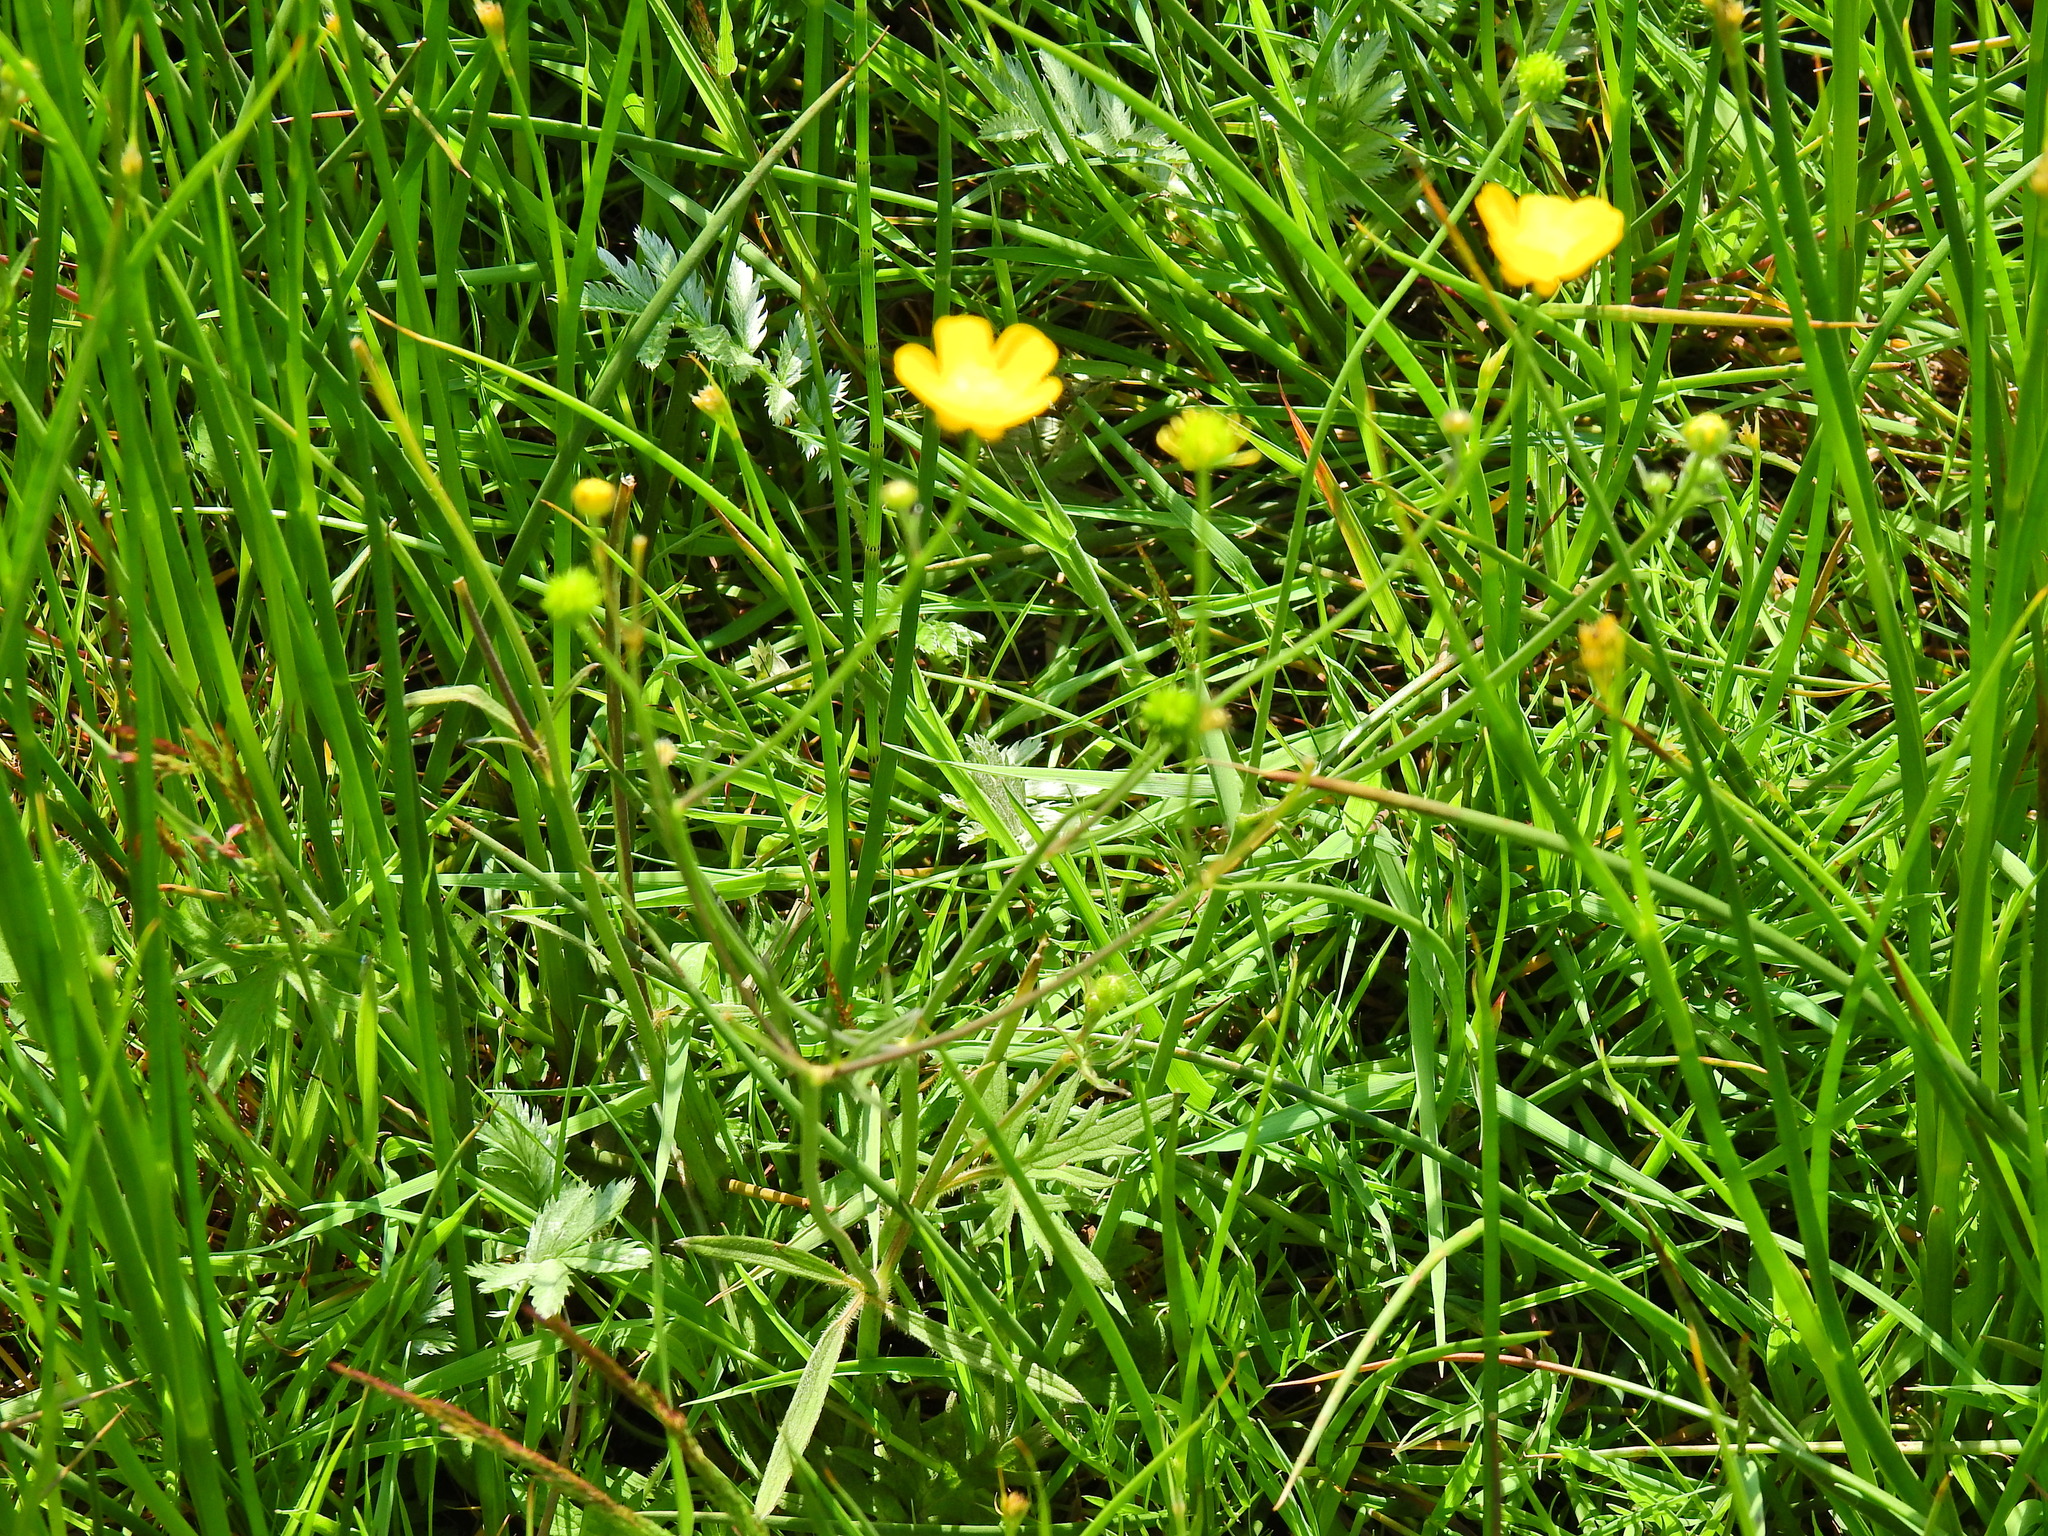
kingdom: Plantae
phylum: Tracheophyta
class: Magnoliopsida
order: Ranunculales
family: Ranunculaceae
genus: Ranunculus
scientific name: Ranunculus flammula
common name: Lesser spearwort
